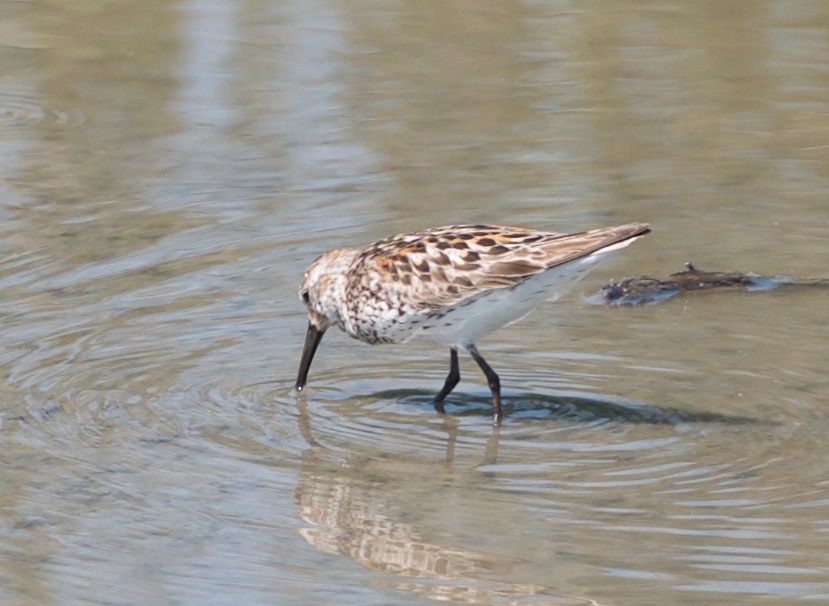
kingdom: Animalia
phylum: Chordata
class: Aves
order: Charadriiformes
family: Scolopacidae
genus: Calidris
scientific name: Calidris mauri
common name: Western sandpiper
